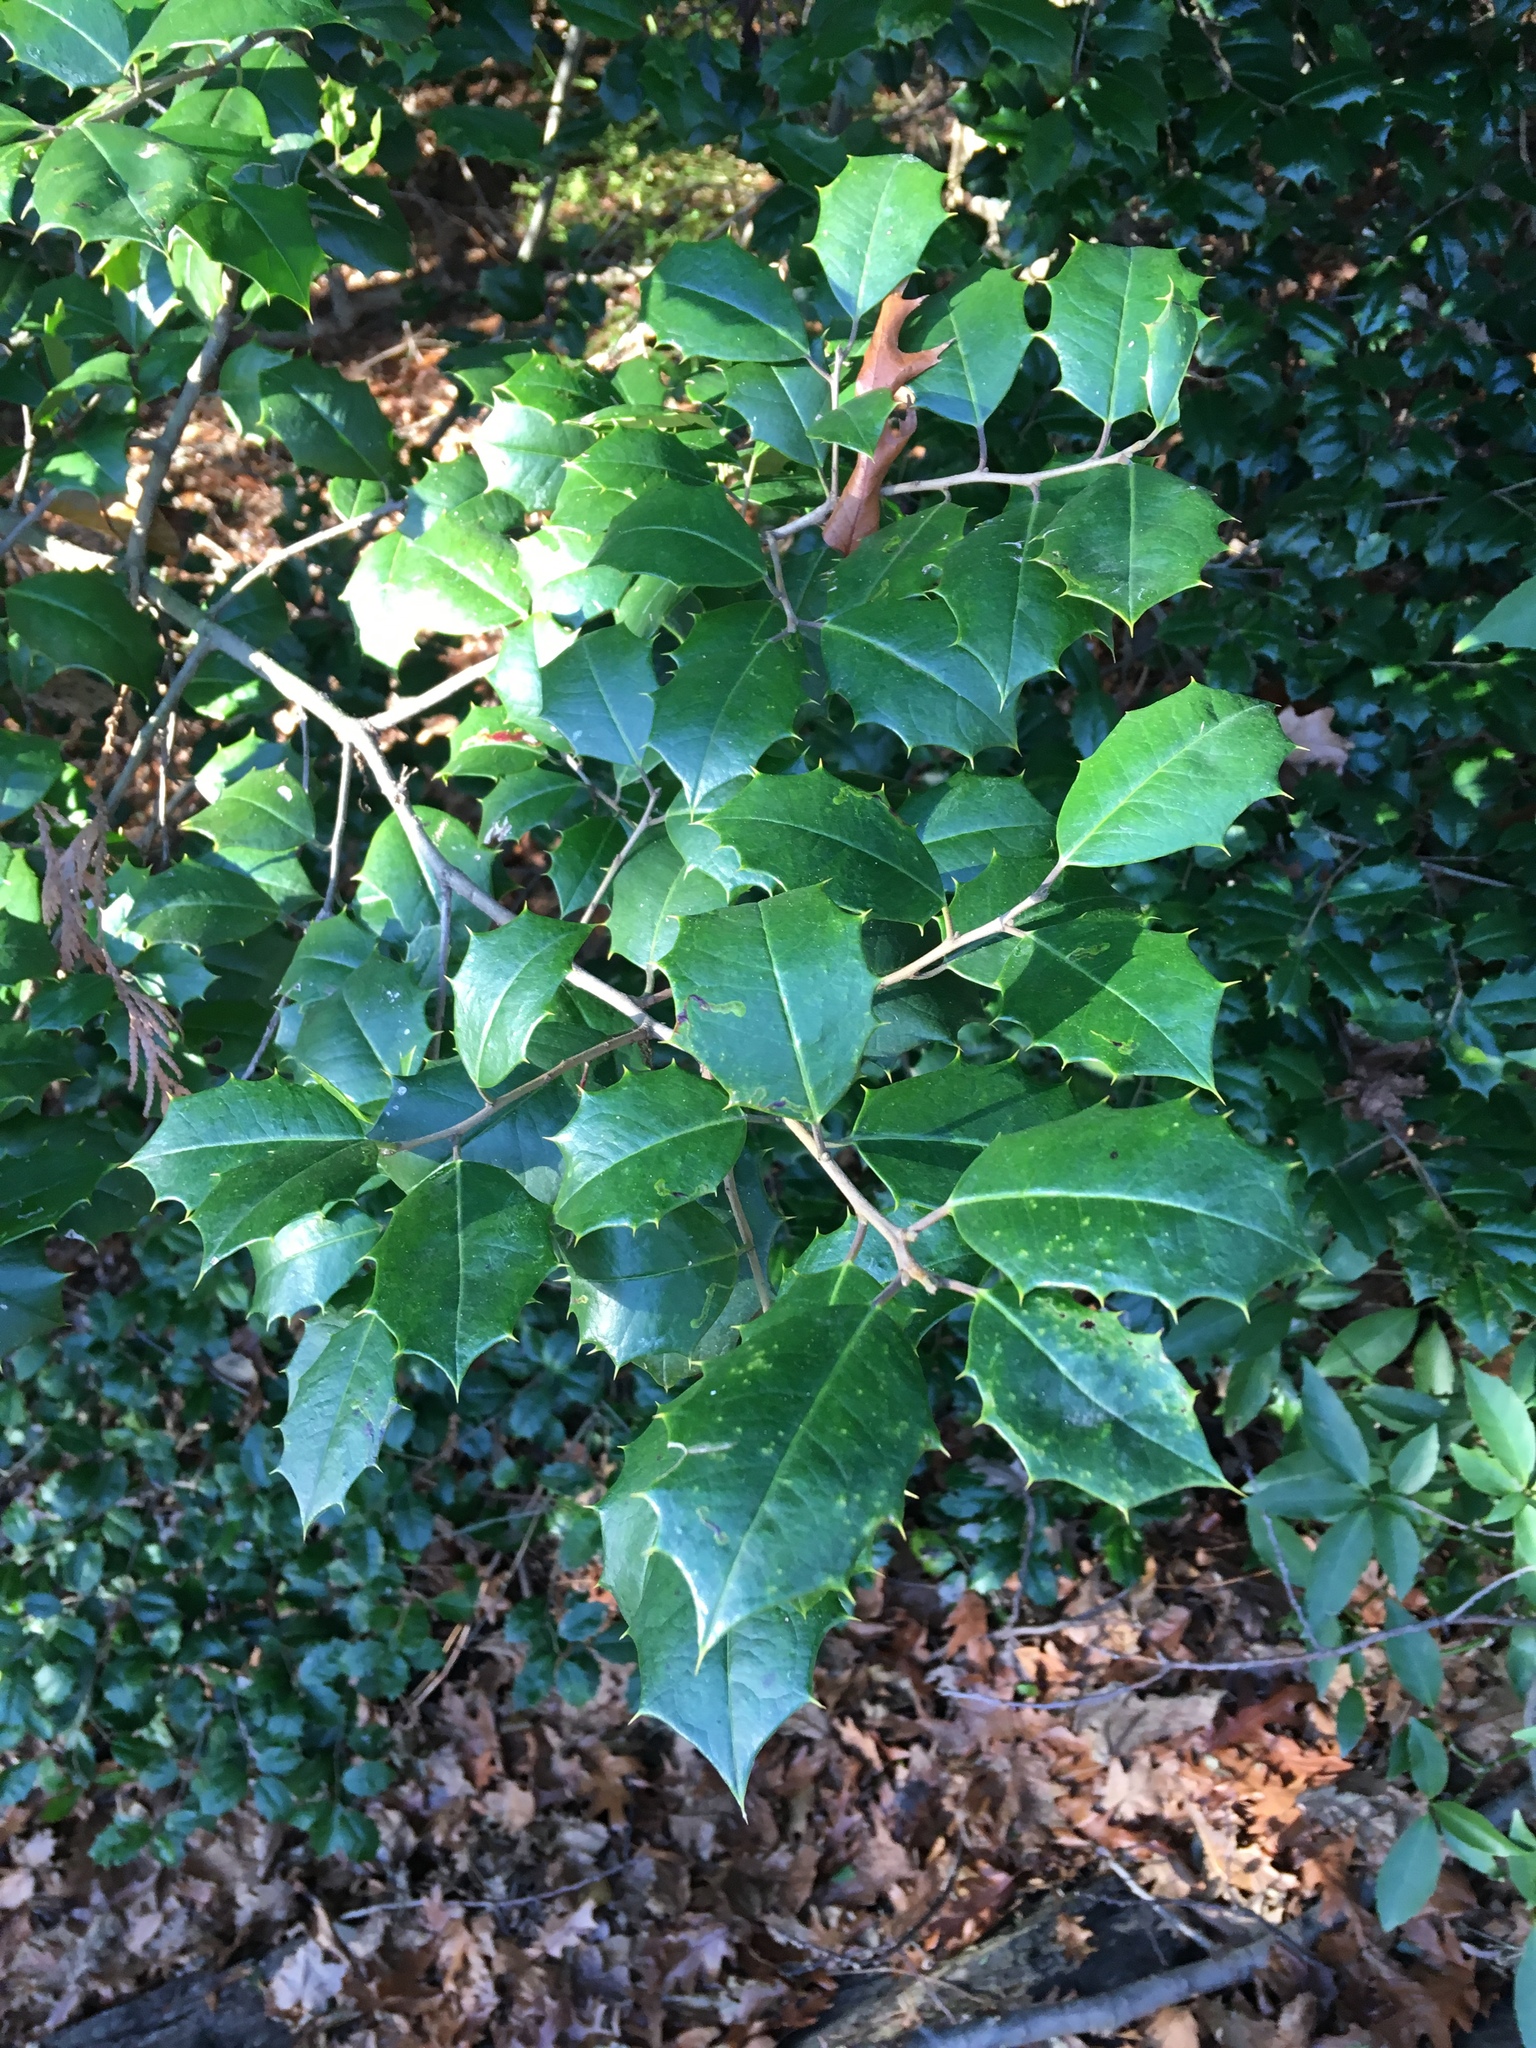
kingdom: Plantae
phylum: Tracheophyta
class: Magnoliopsida
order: Aquifoliales
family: Aquifoliaceae
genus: Ilex
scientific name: Ilex opaca
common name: American holly
